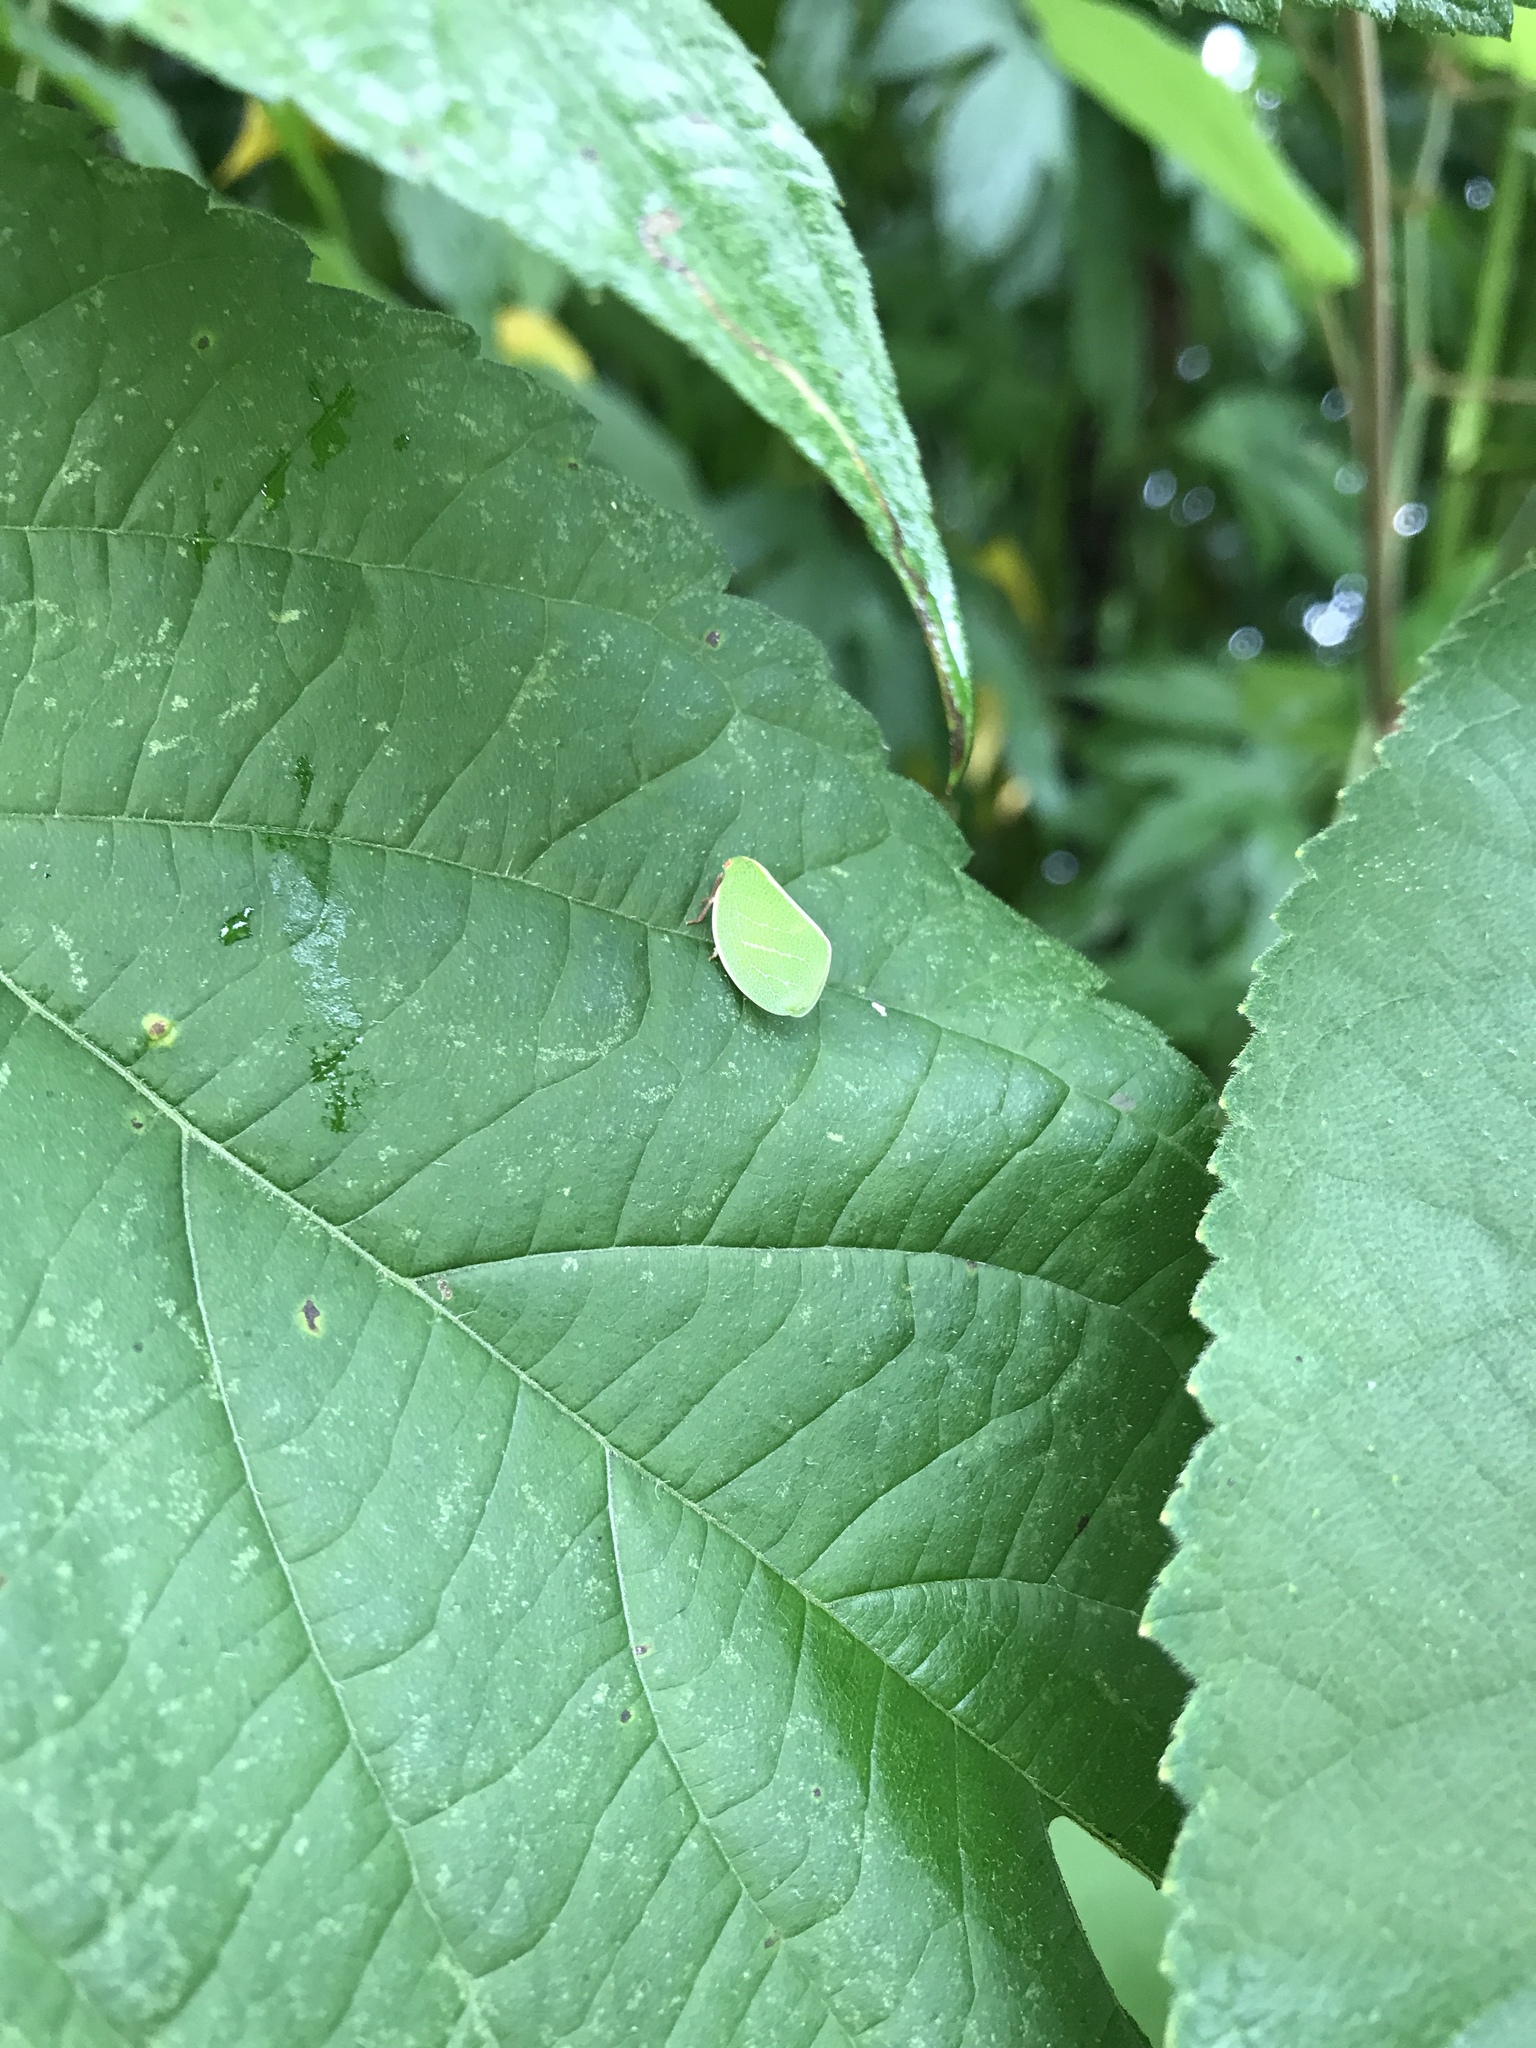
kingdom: Animalia
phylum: Arthropoda
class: Insecta
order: Hemiptera
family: Acanaloniidae
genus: Acanalonia
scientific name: Acanalonia servillei
